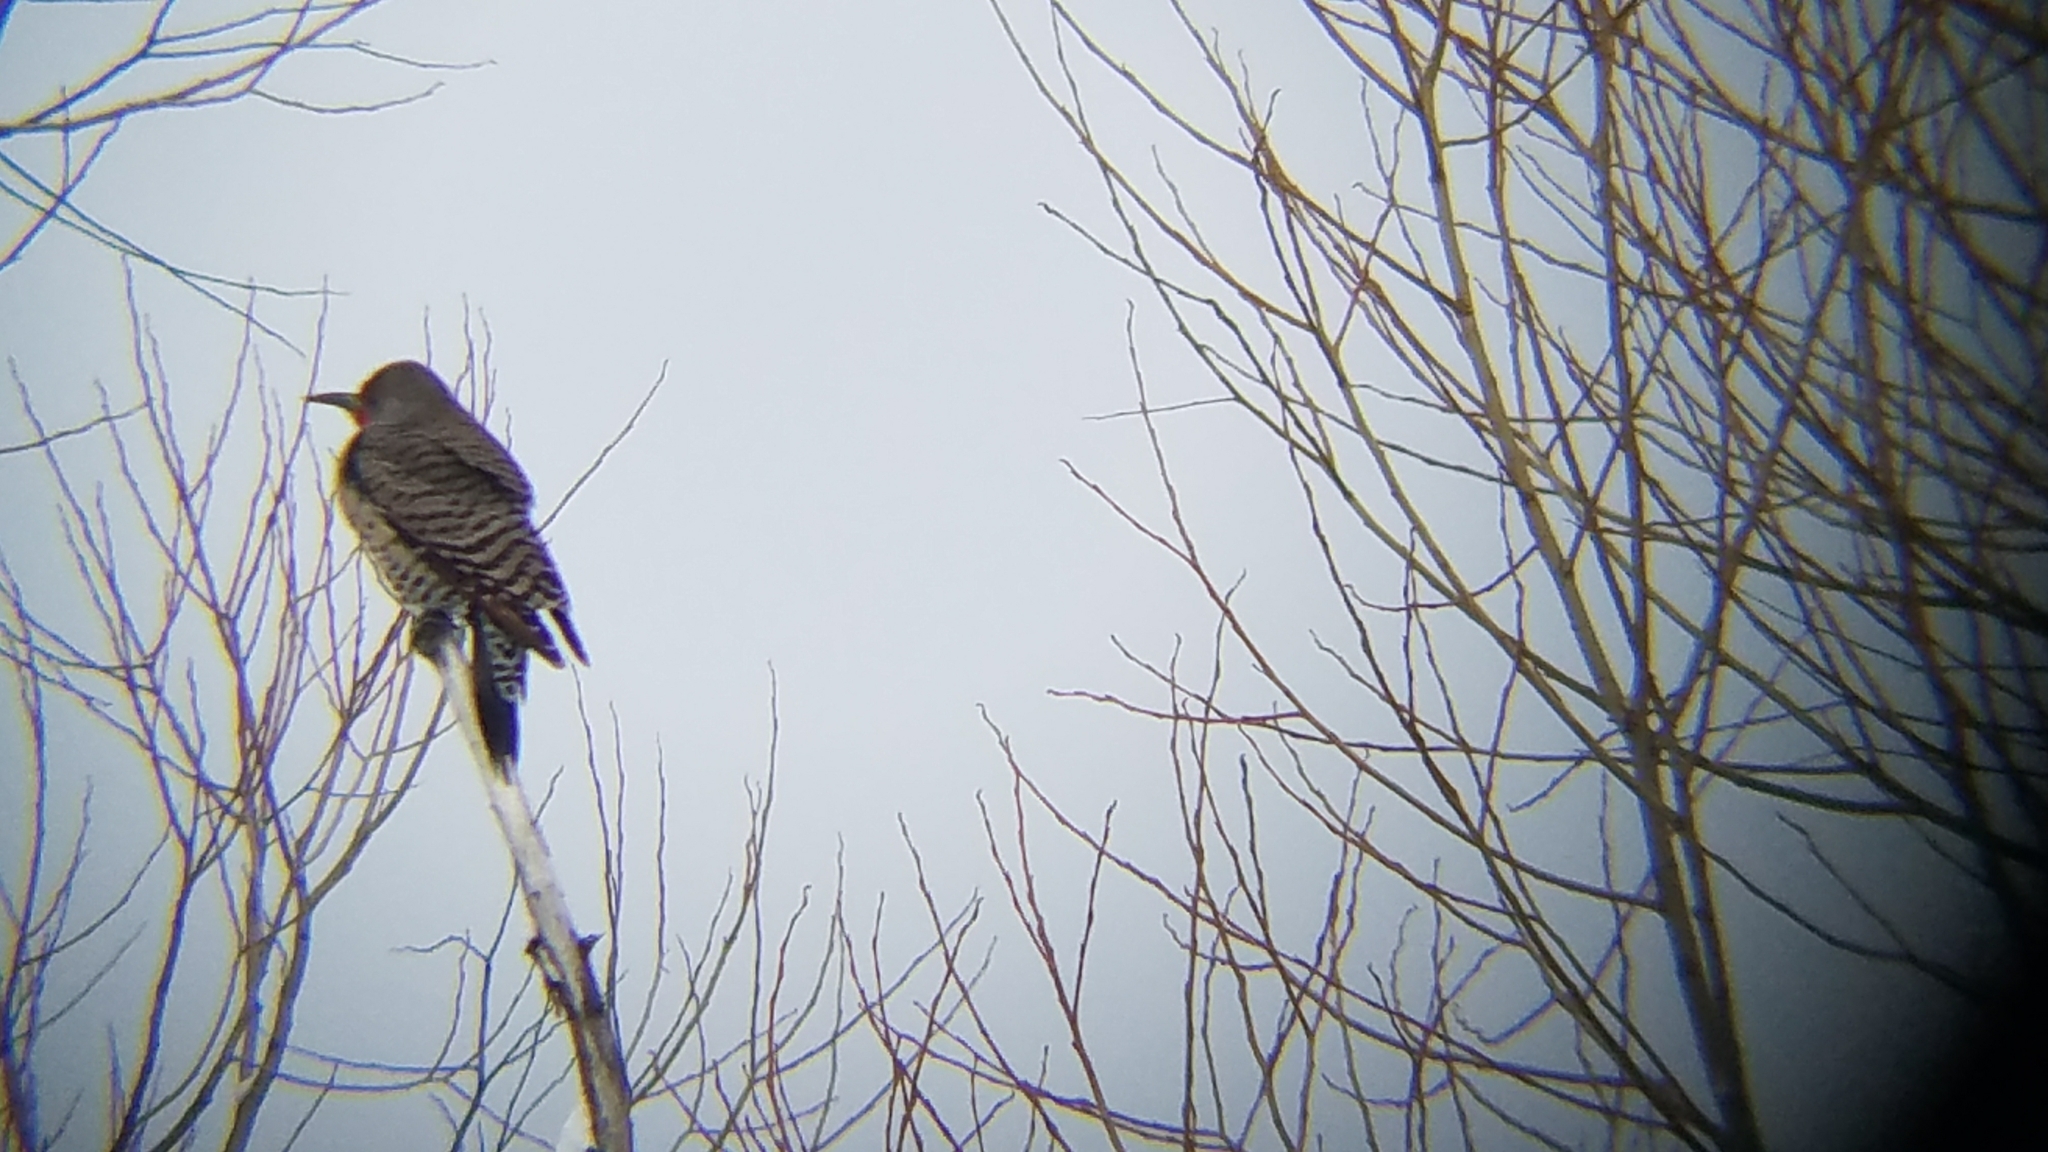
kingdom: Animalia
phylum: Chordata
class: Aves
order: Piciformes
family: Picidae
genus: Colaptes
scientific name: Colaptes auratus
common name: Northern flicker
